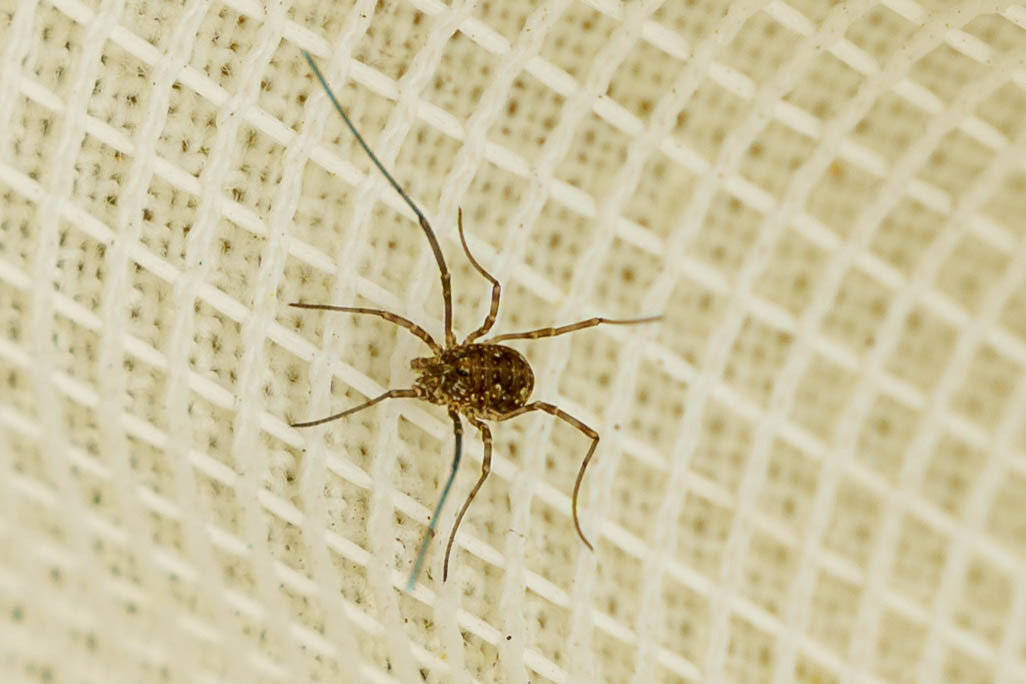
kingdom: Animalia
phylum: Arthropoda
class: Arachnida
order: Opiliones
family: Phalangiidae
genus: Phalangium
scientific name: Phalangium opilio
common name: Daddy longleg
